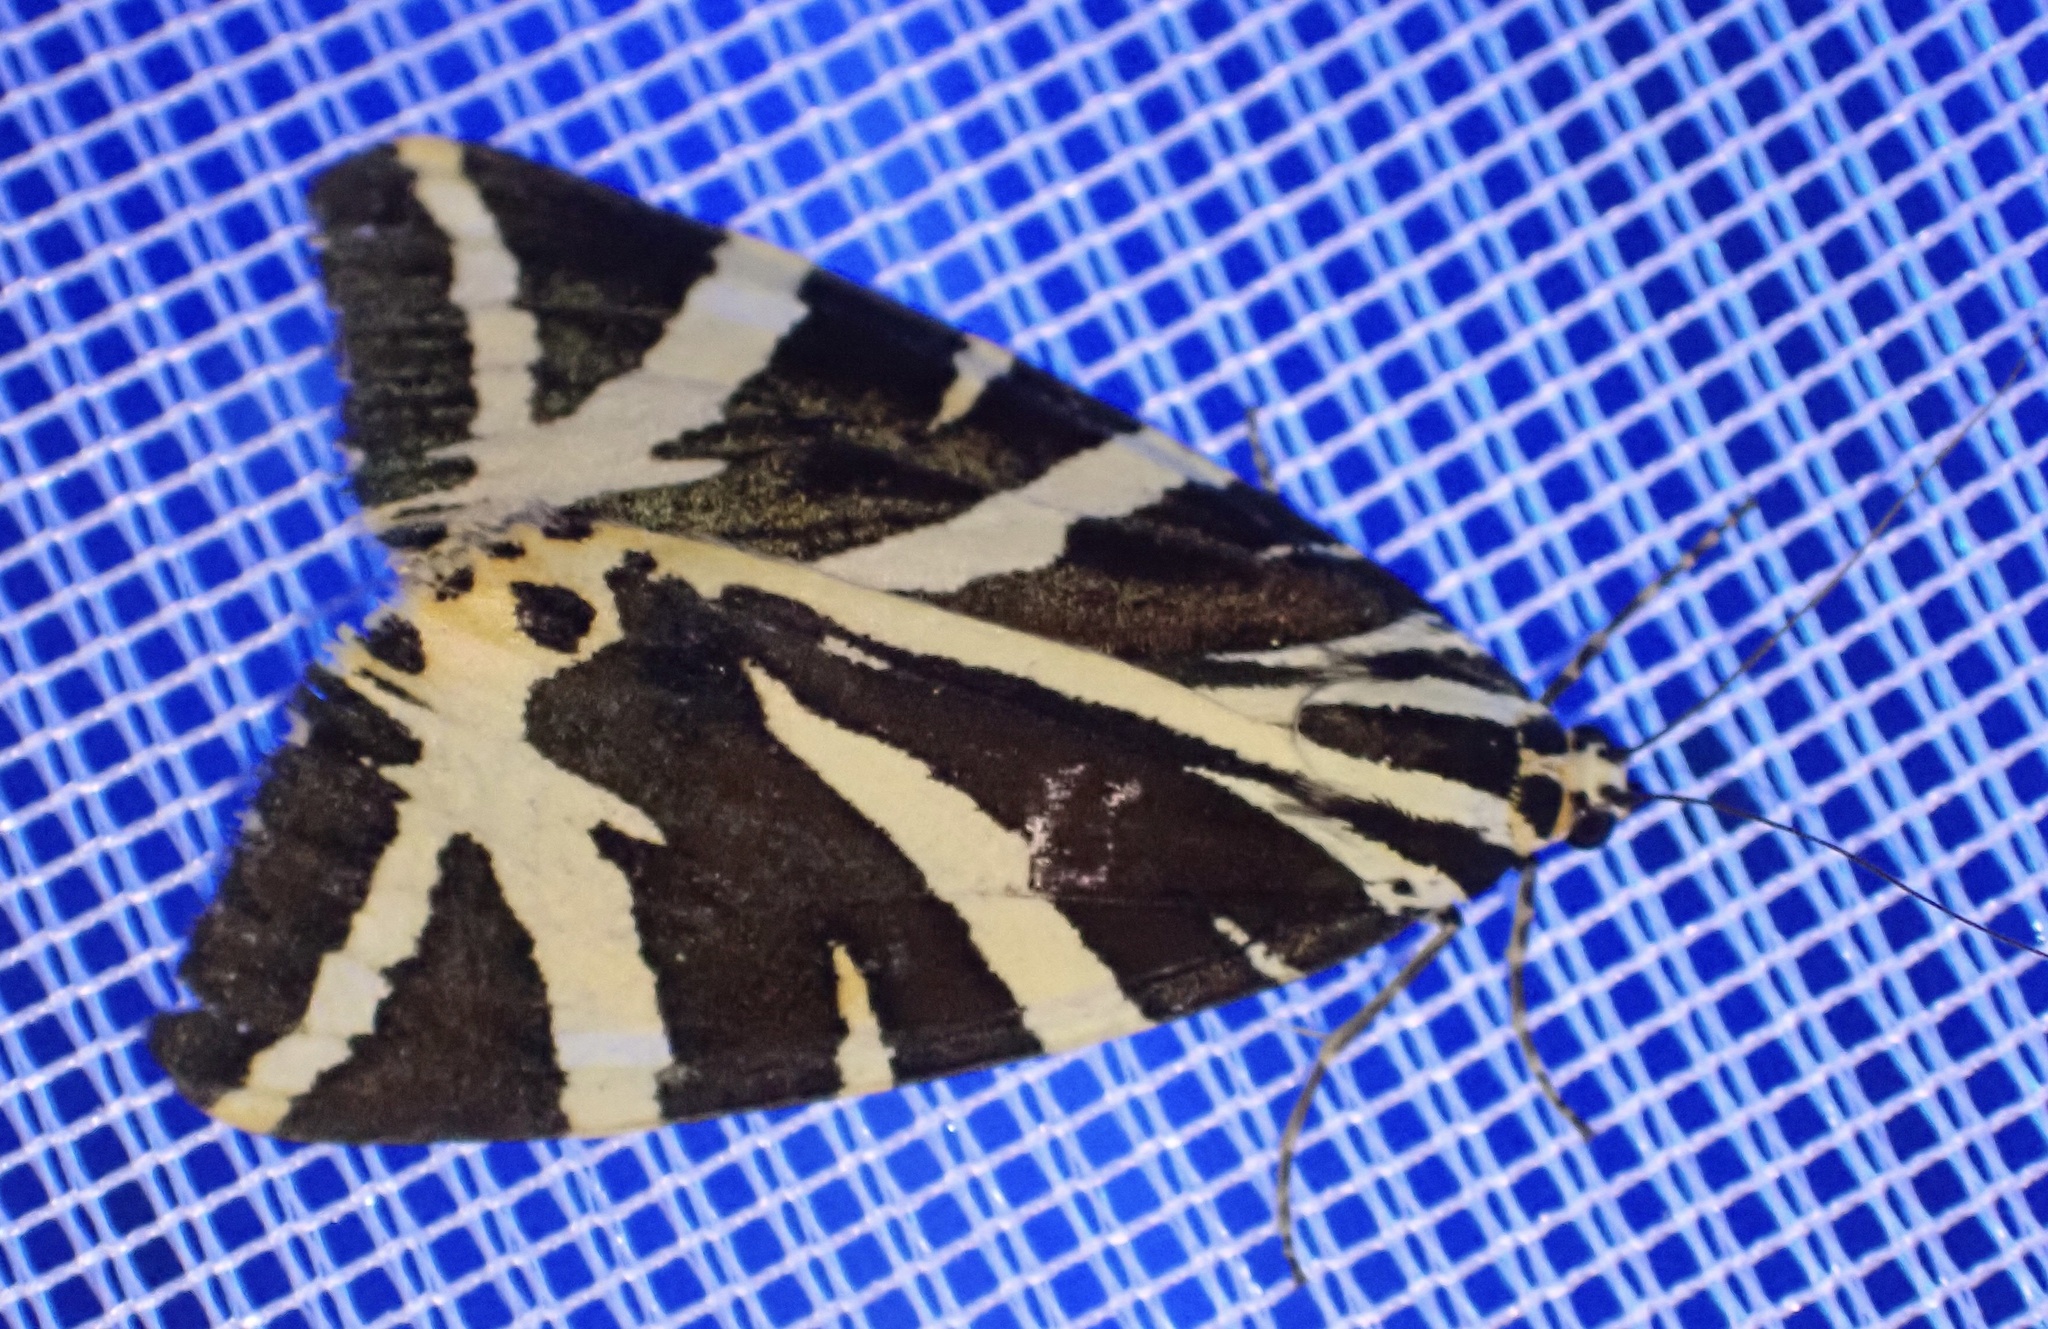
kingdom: Animalia
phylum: Arthropoda
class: Insecta
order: Lepidoptera
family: Erebidae
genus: Euplagia
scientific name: Euplagia quadripunctaria
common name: Jersey tiger
